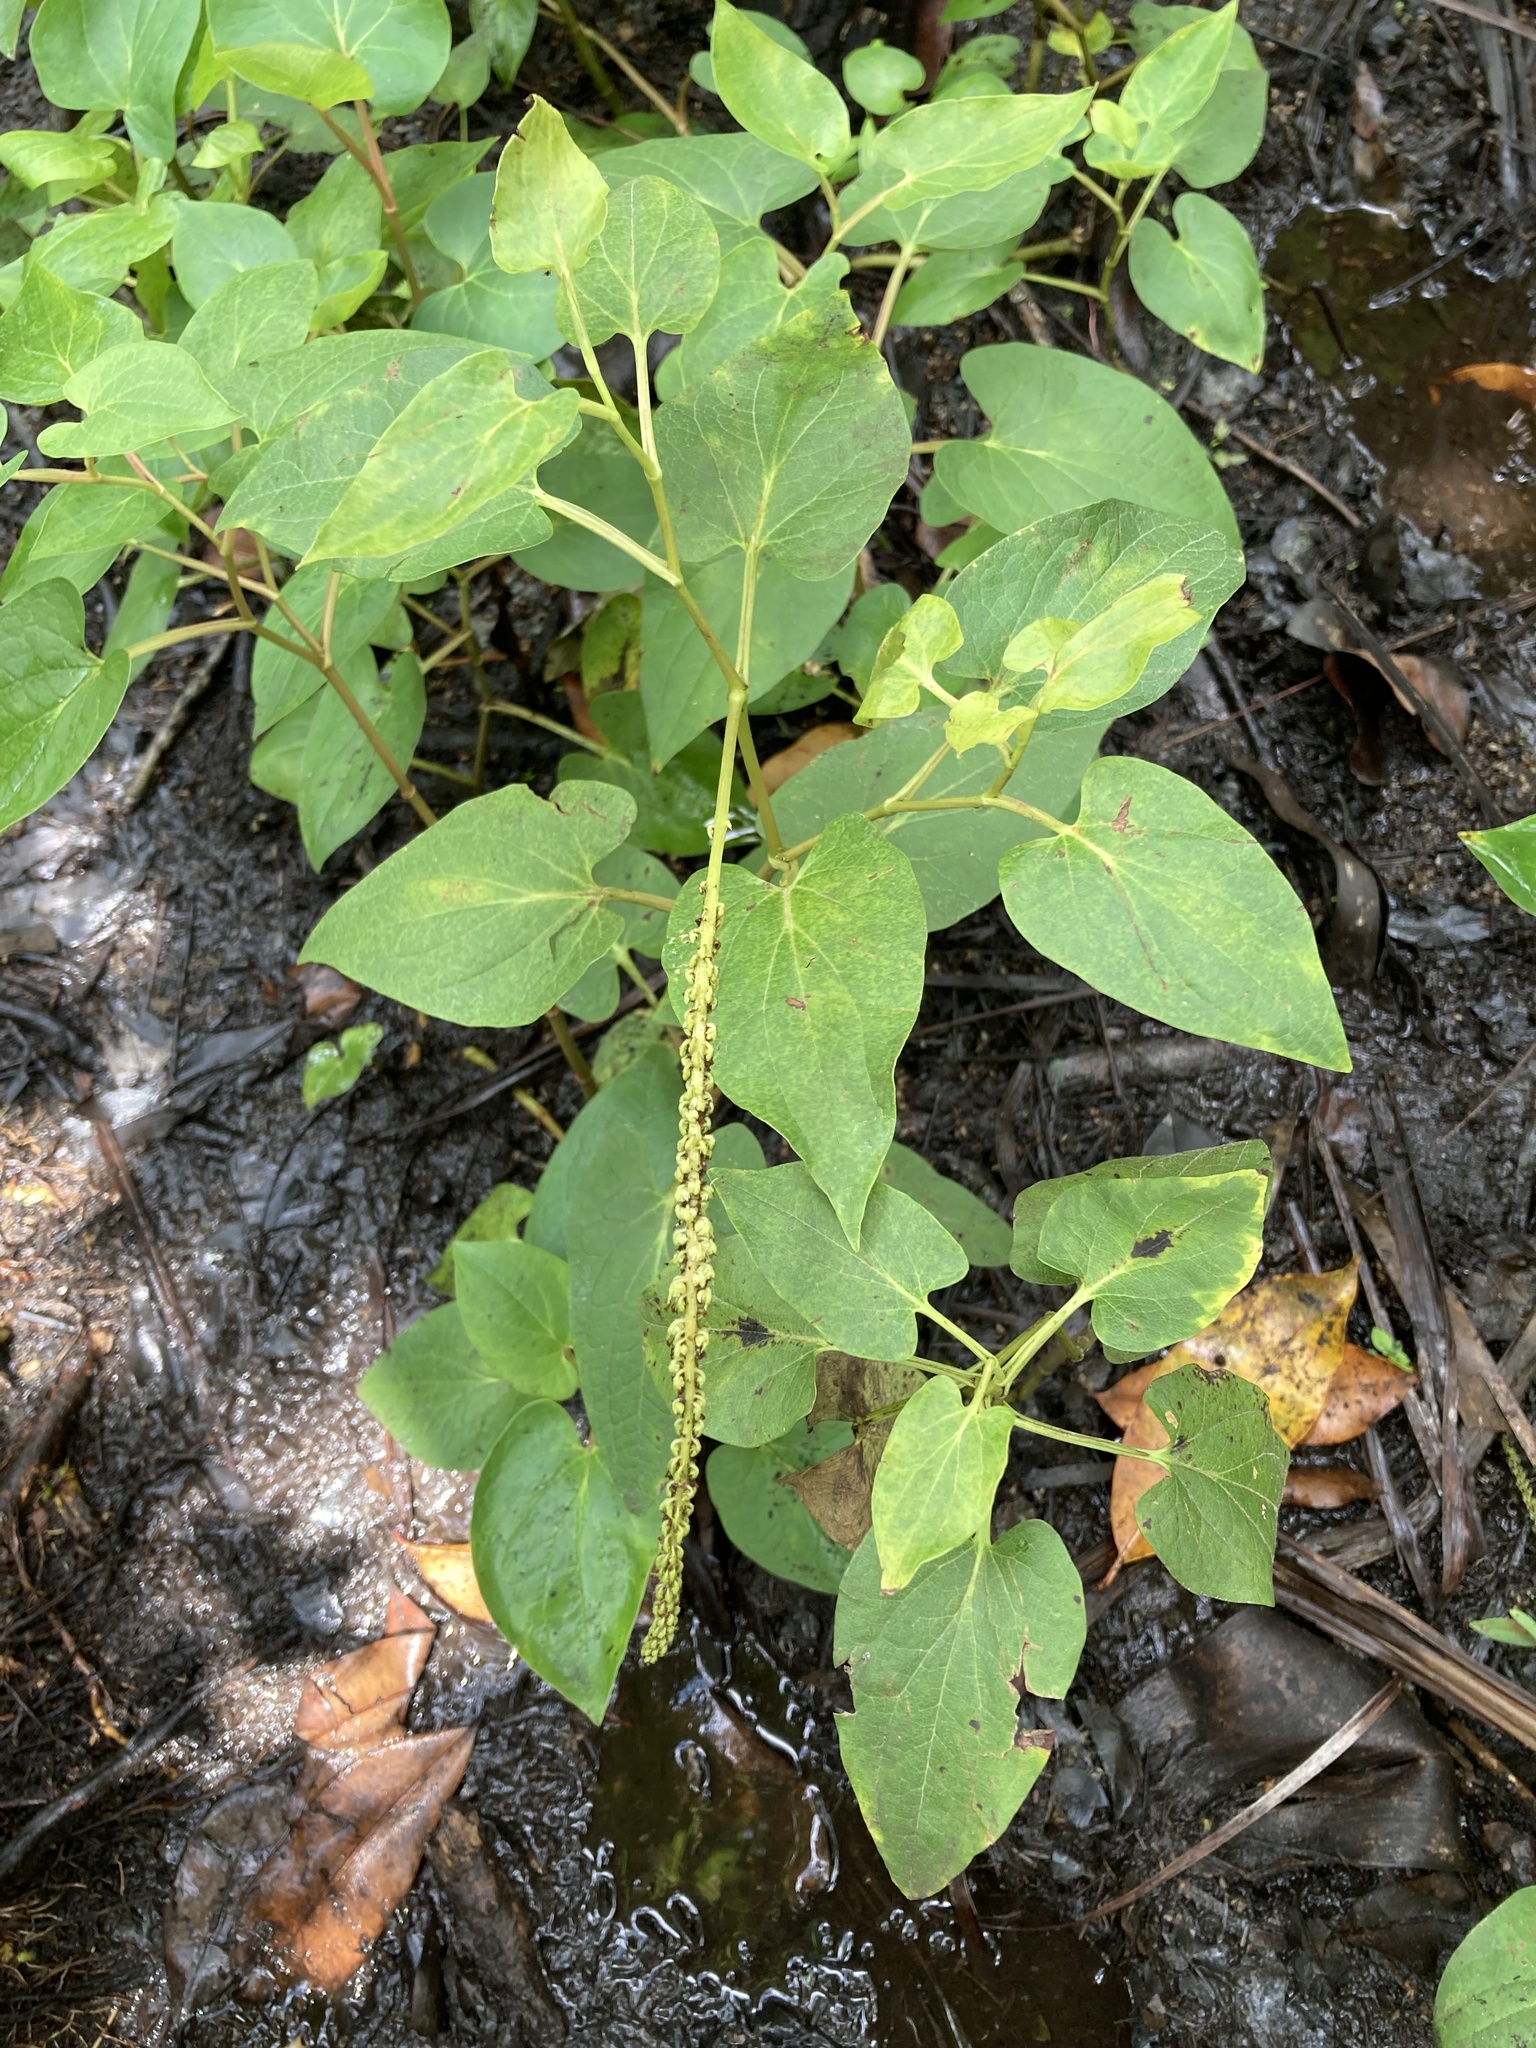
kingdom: Plantae
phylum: Tracheophyta
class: Magnoliopsida
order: Piperales
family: Saururaceae
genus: Saururus
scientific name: Saururus cernuus
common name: Lizard's-tail
